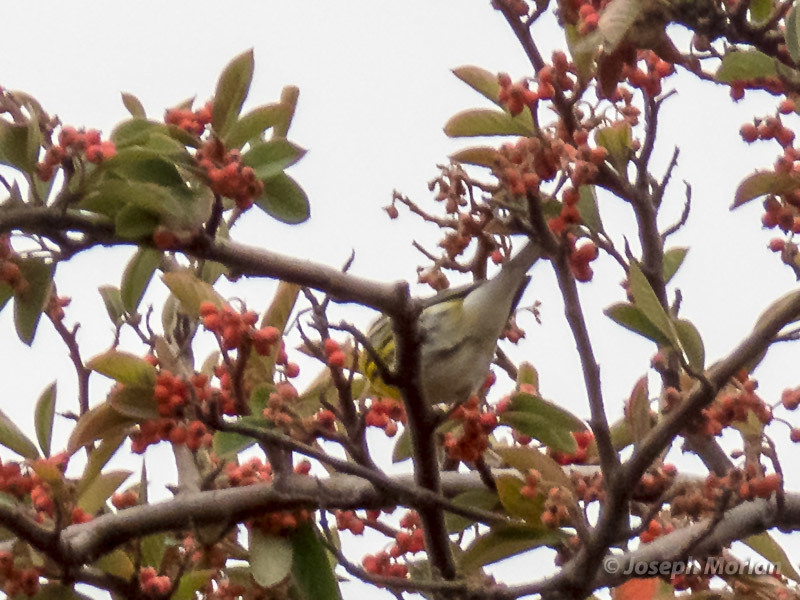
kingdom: Animalia
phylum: Chordata
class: Aves
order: Passeriformes
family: Parulidae
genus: Setophaga
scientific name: Setophaga townsendi
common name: Townsend's warbler
